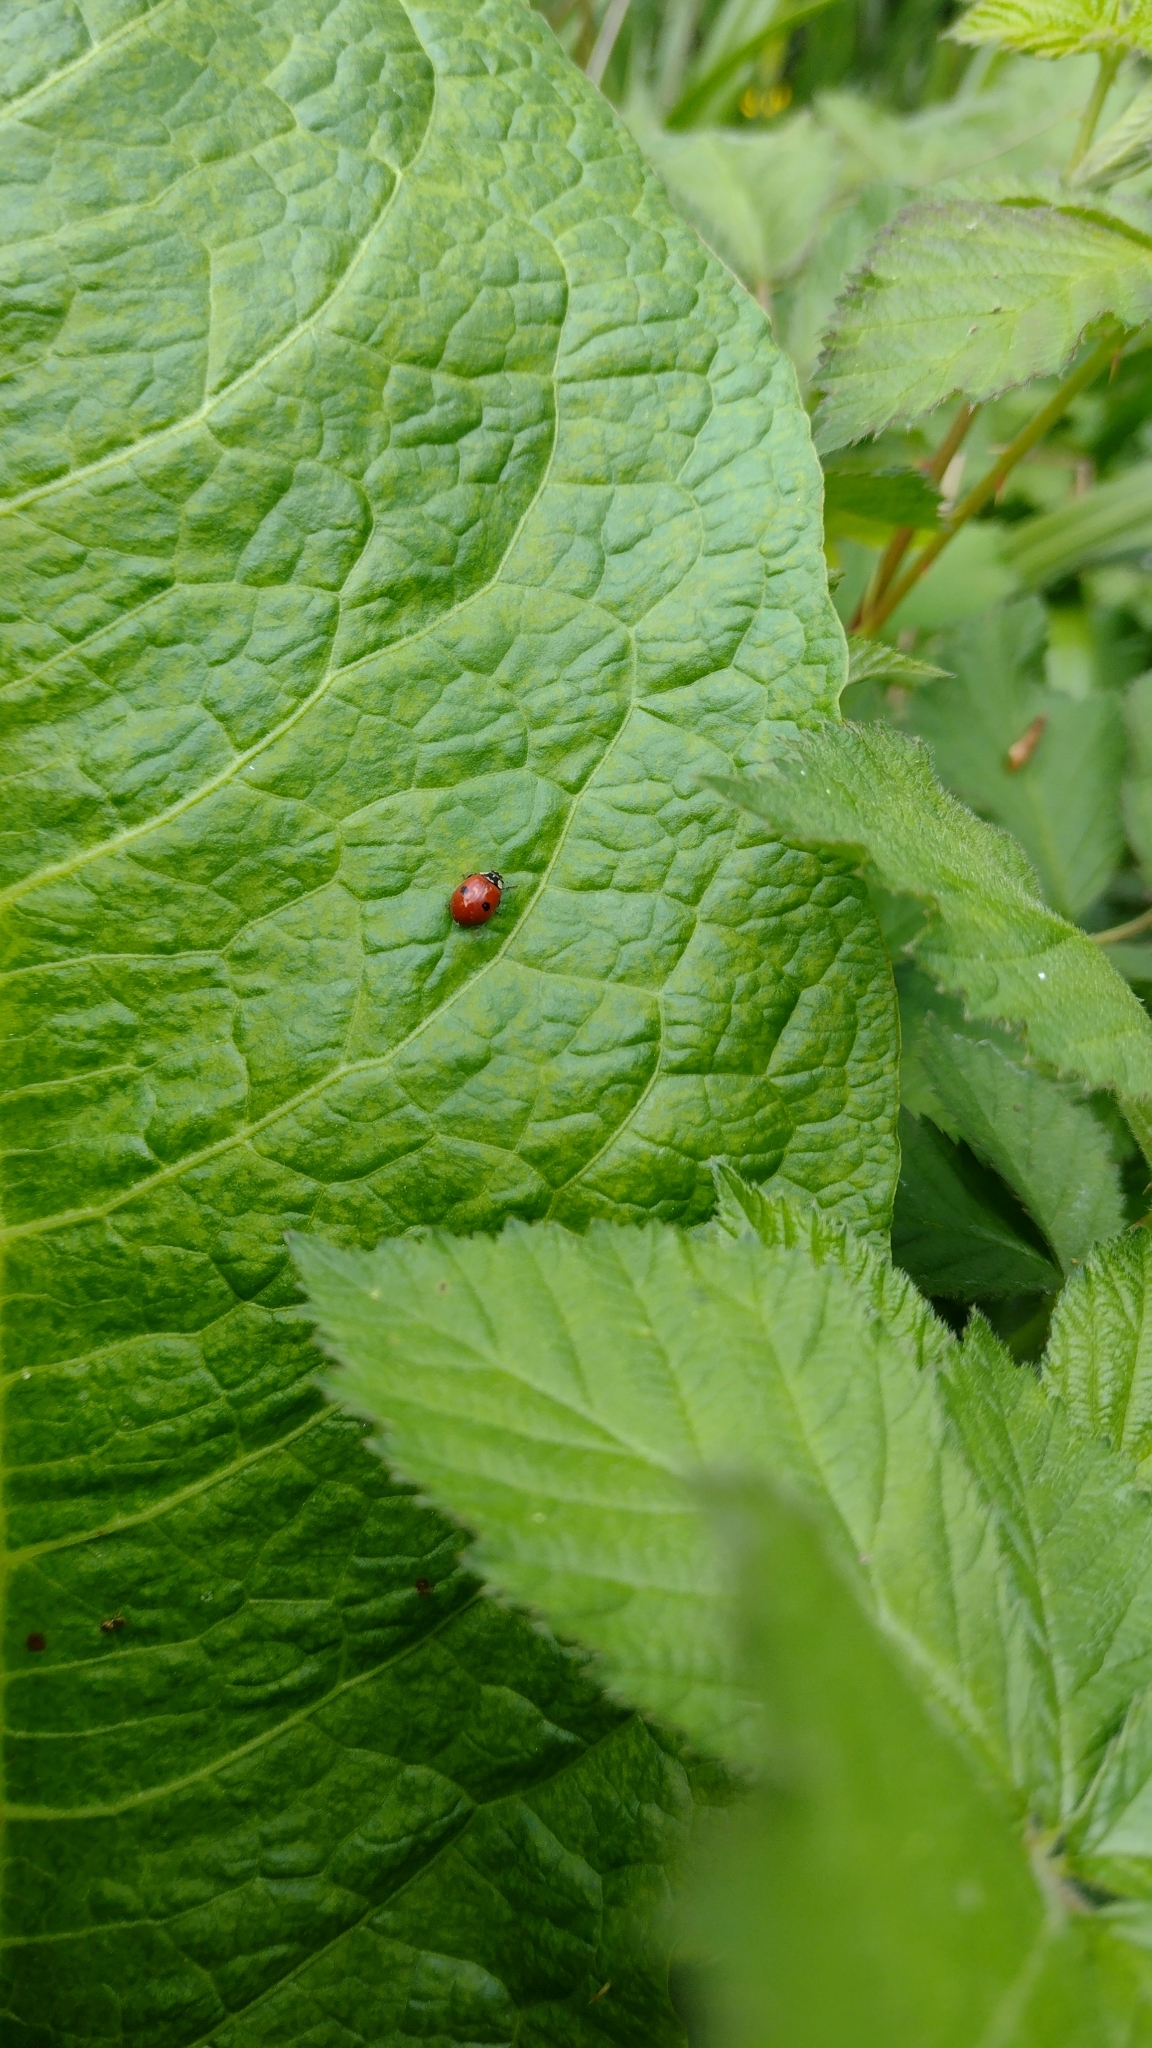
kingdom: Animalia
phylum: Arthropoda
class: Insecta
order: Coleoptera
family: Coccinellidae
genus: Adalia
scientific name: Adalia bipunctata
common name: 2-spot ladybird
